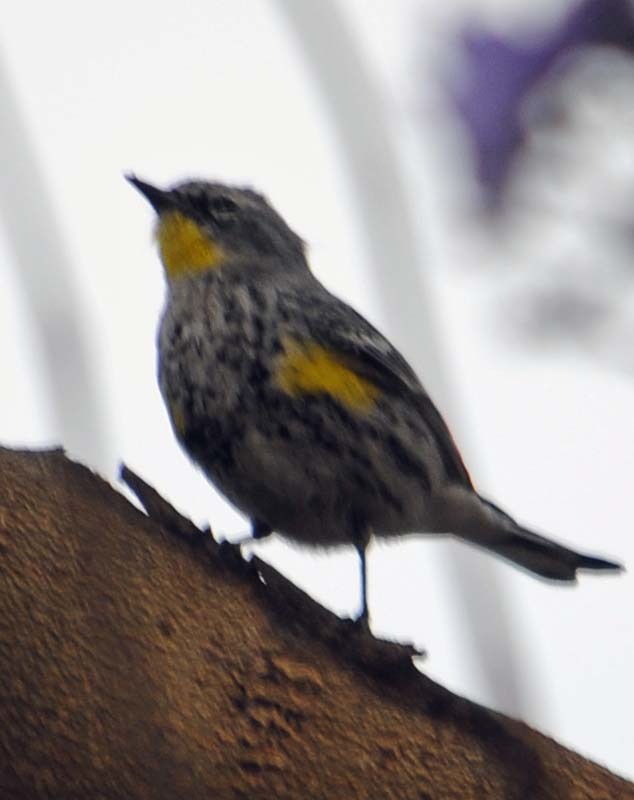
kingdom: Animalia
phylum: Chordata
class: Aves
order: Passeriformes
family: Parulidae
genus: Setophaga
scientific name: Setophaga auduboni
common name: Audubon's warbler
